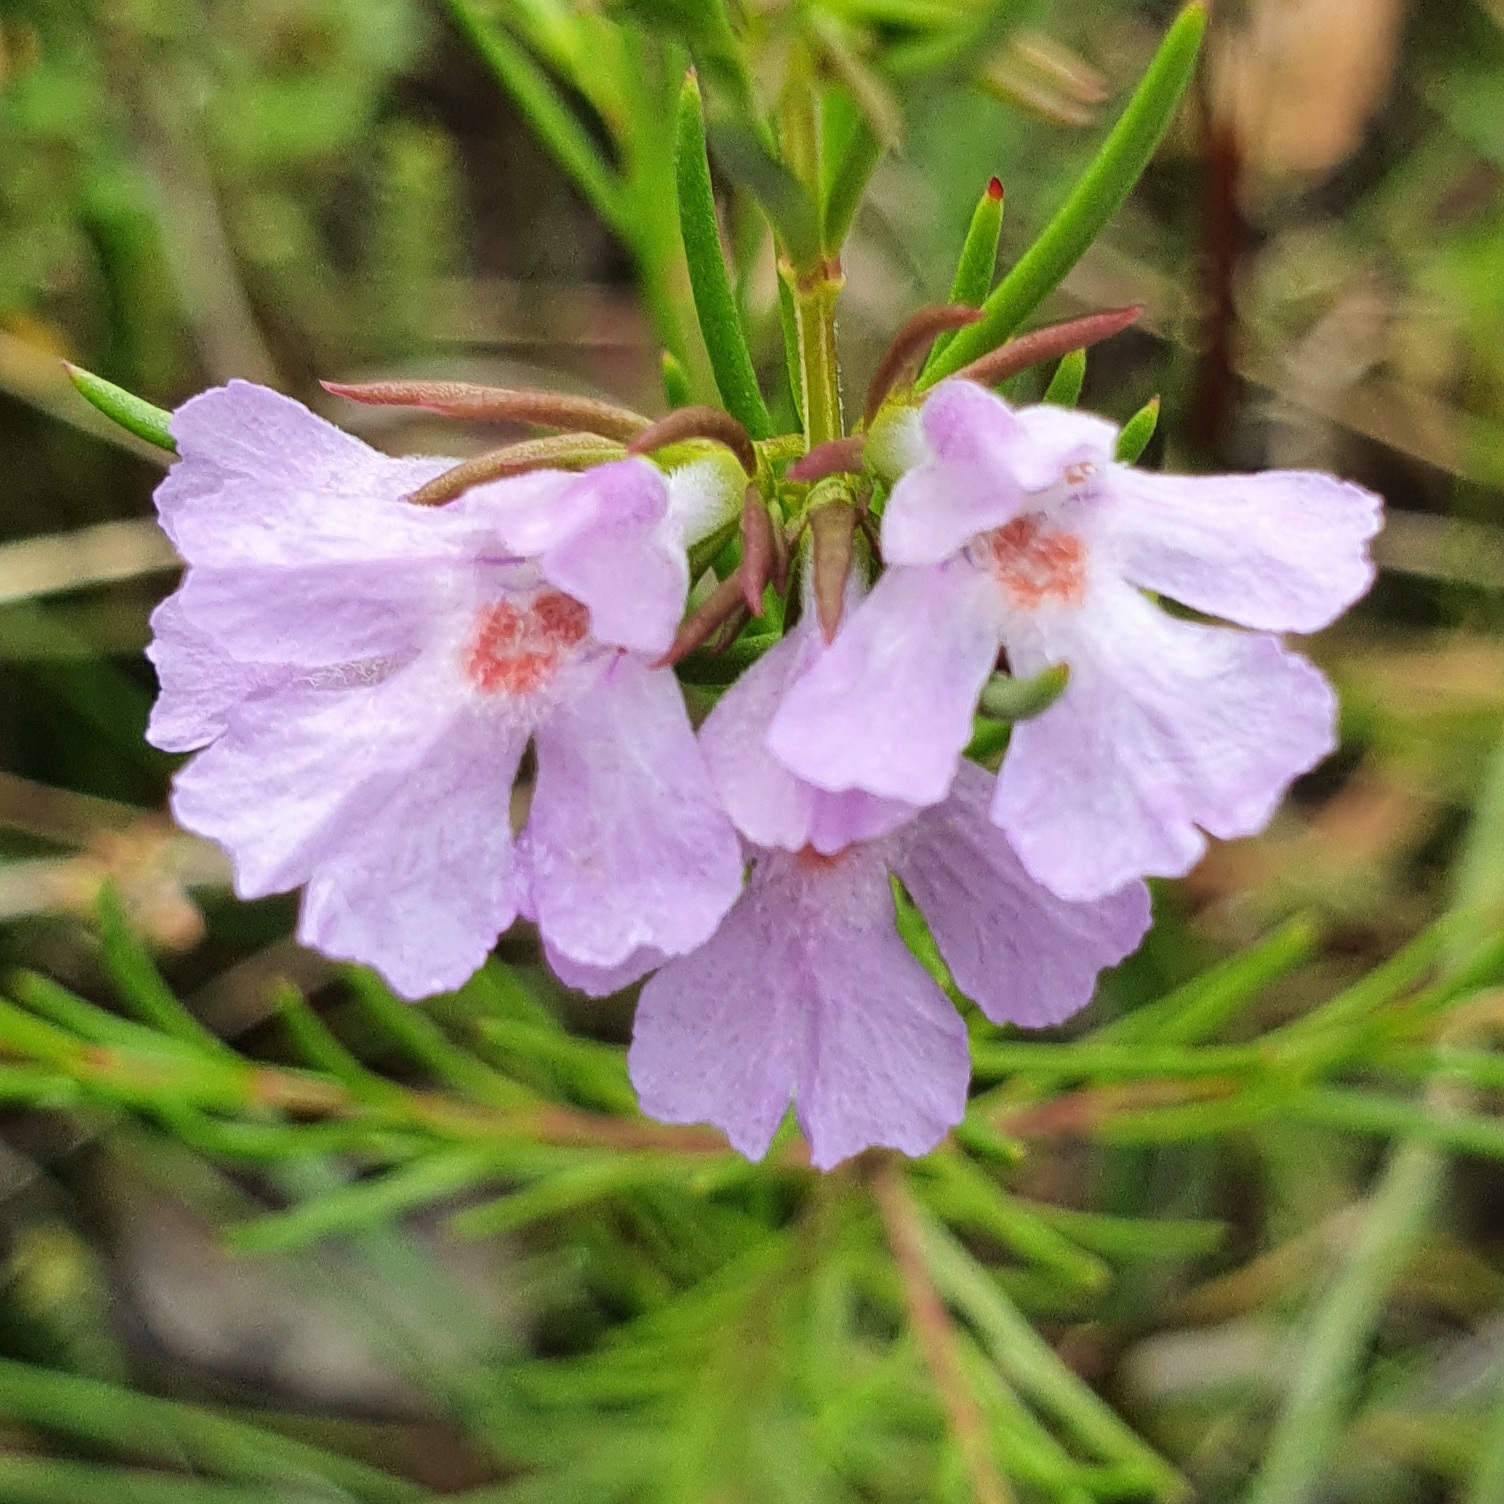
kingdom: Plantae
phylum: Tracheophyta
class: Magnoliopsida
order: Lamiales
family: Lamiaceae
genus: Hemigenia
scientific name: Hemigenia purpurea
